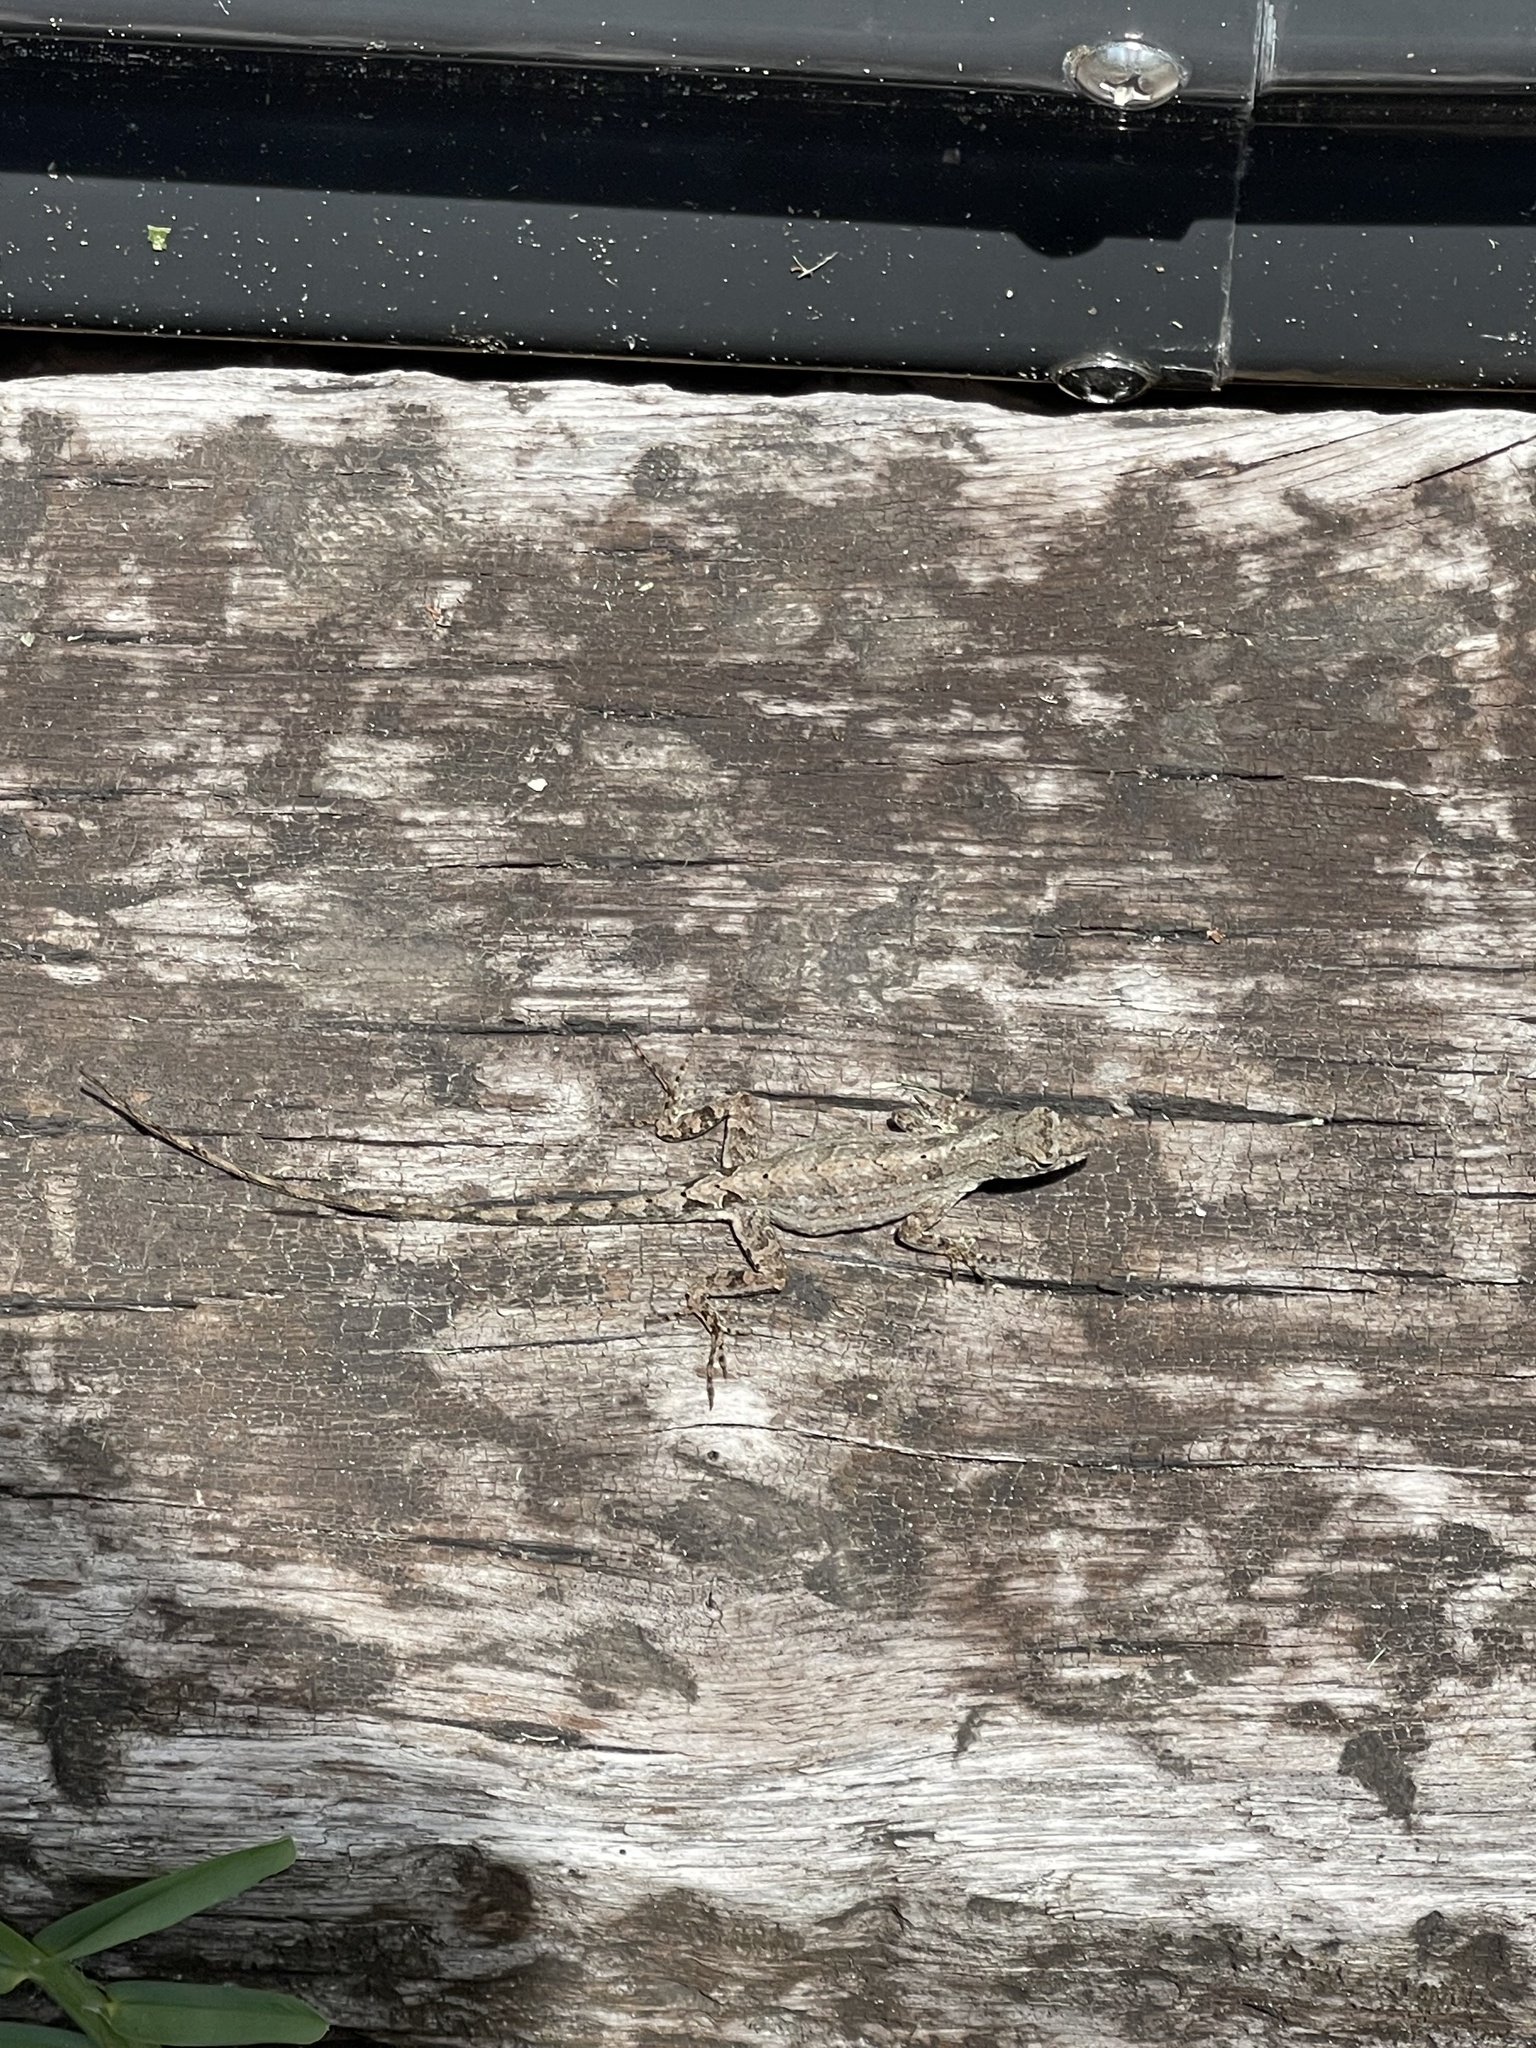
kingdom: Animalia
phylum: Chordata
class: Squamata
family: Dactyloidae
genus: Anolis
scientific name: Anolis sagrei
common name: Brown anole
